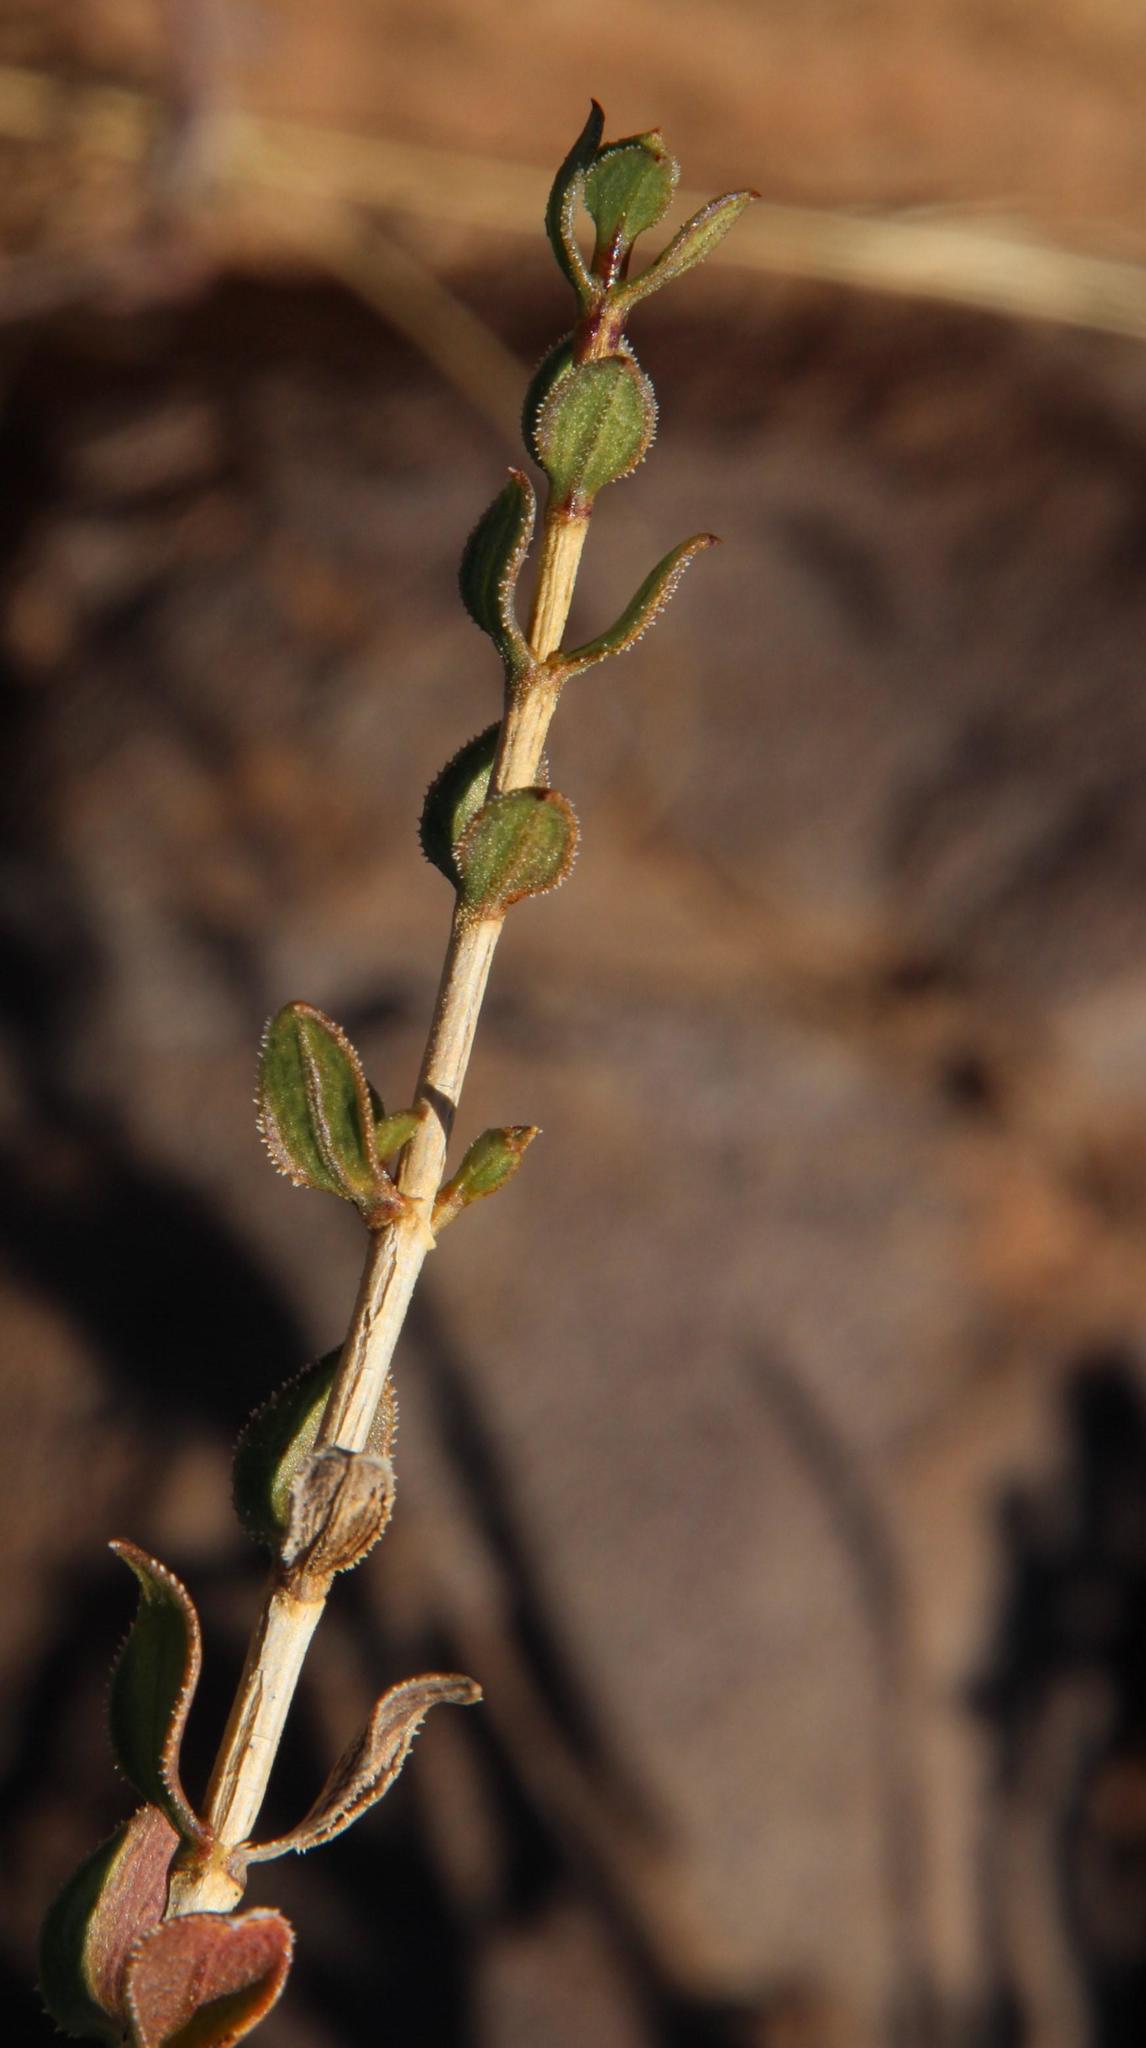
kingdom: Plantae
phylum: Tracheophyta
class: Magnoliopsida
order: Asterales
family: Asteraceae
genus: Pteronia
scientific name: Pteronia viscosa
